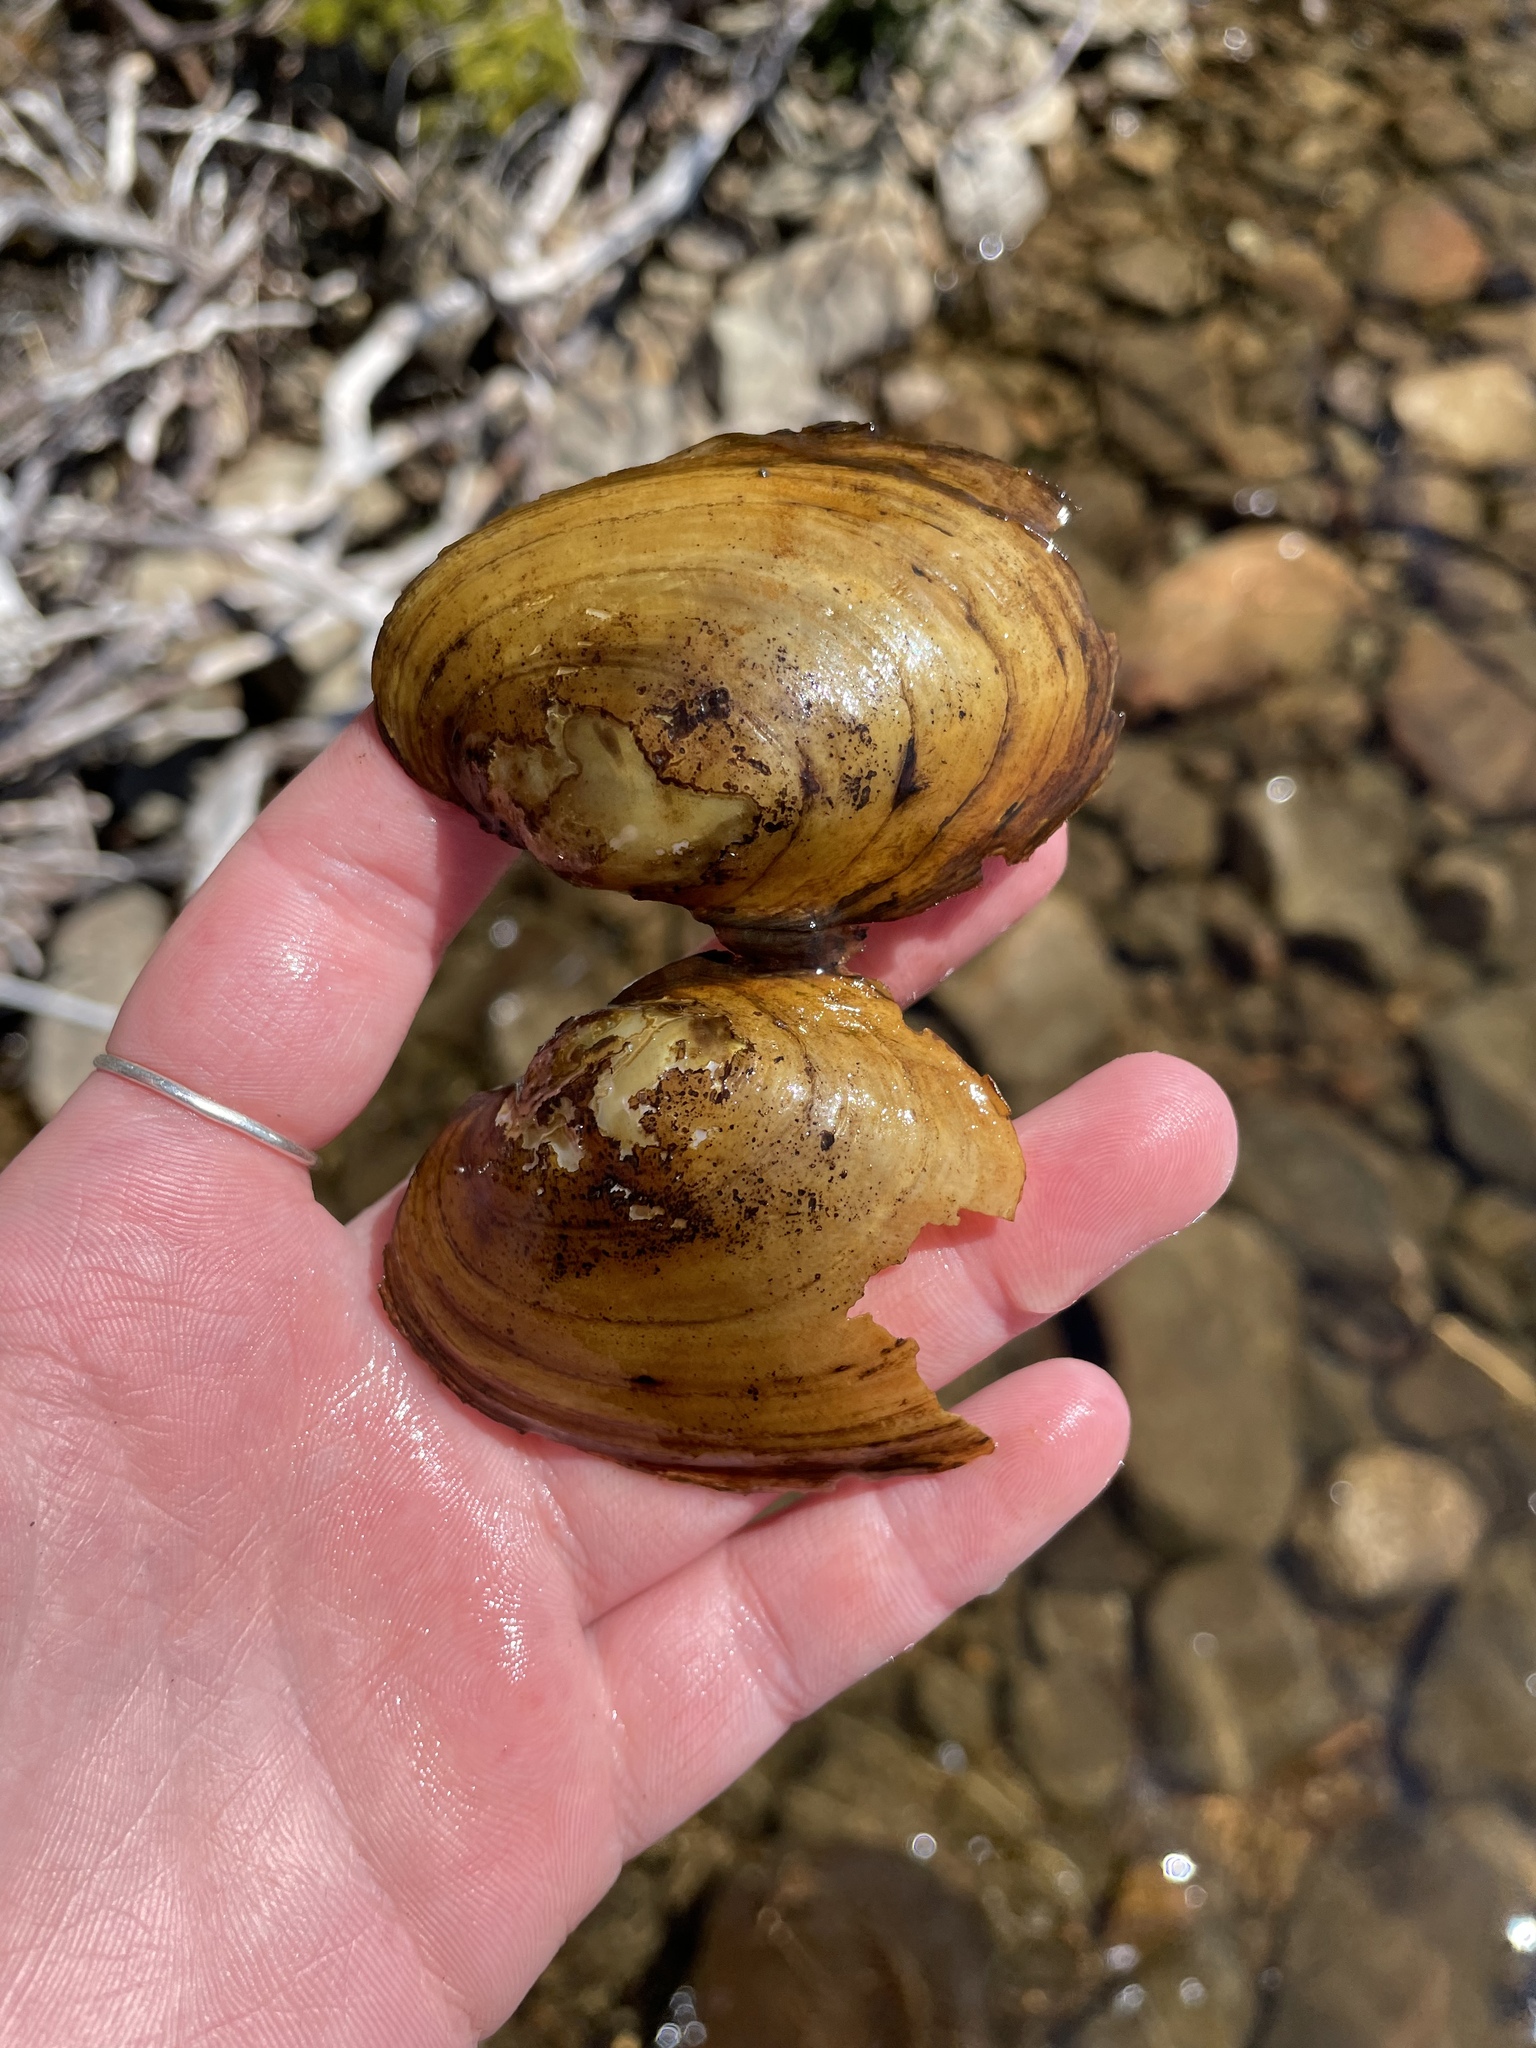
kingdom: Animalia
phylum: Mollusca
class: Bivalvia
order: Unionida
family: Unionidae
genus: Lampsilis
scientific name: Lampsilis cariosa
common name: Yellow lampmussel
